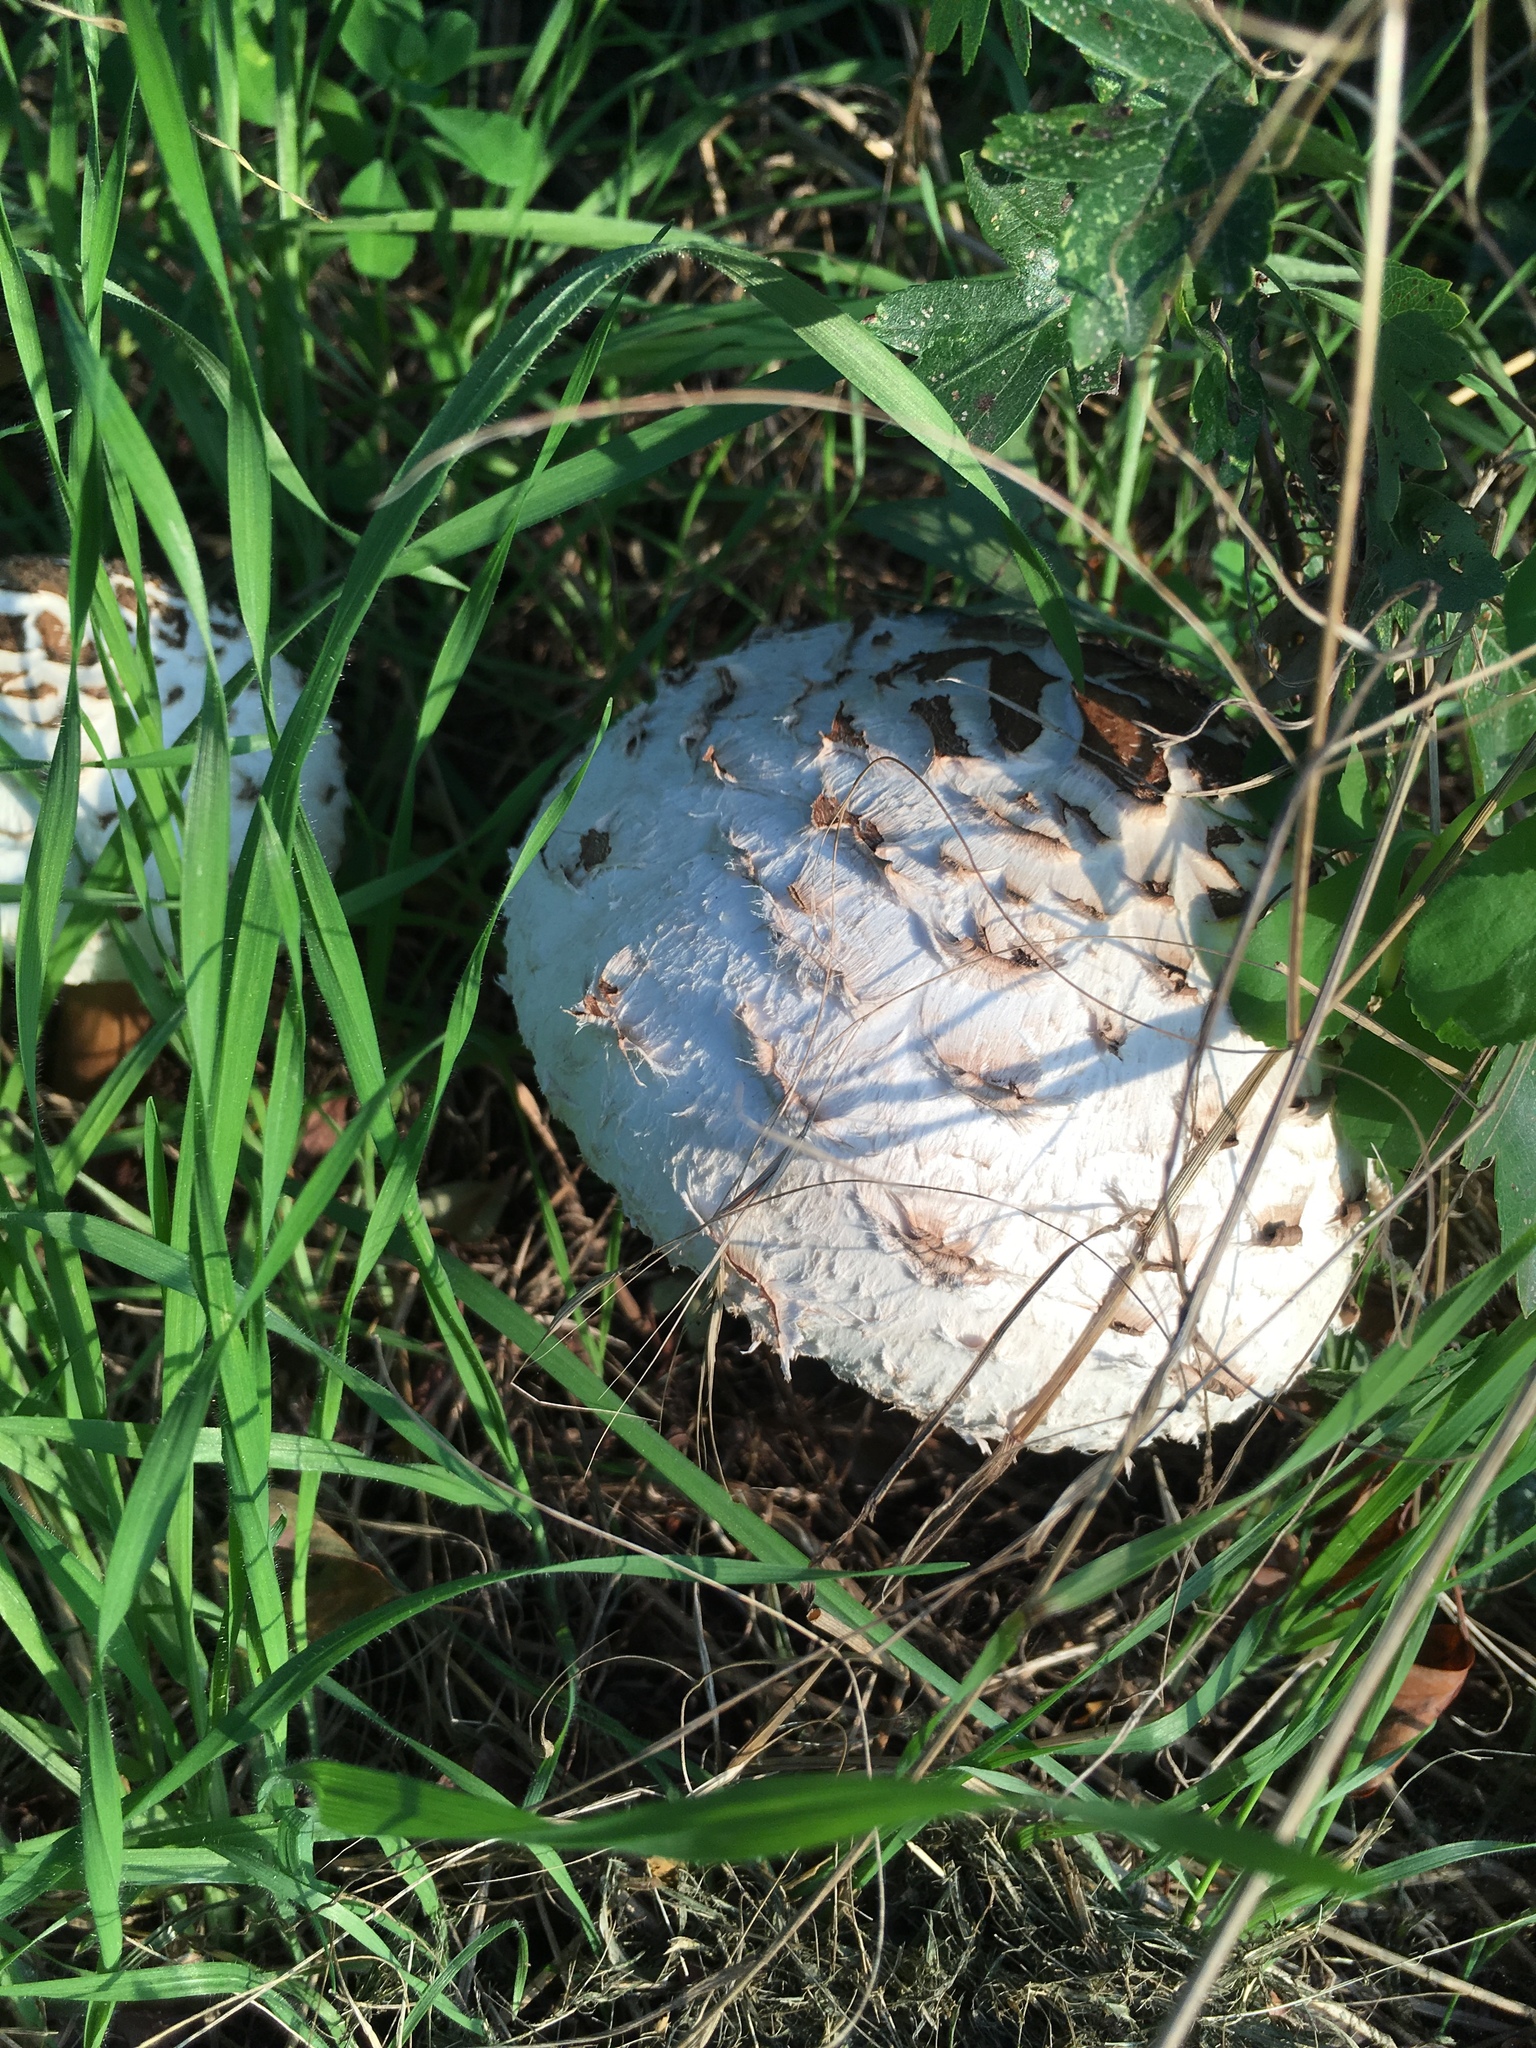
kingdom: Fungi
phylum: Basidiomycota
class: Agaricomycetes
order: Agaricales
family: Agaricaceae
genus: Chlorophyllum
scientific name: Chlorophyllum rhacodes
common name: Shaggy parasol
